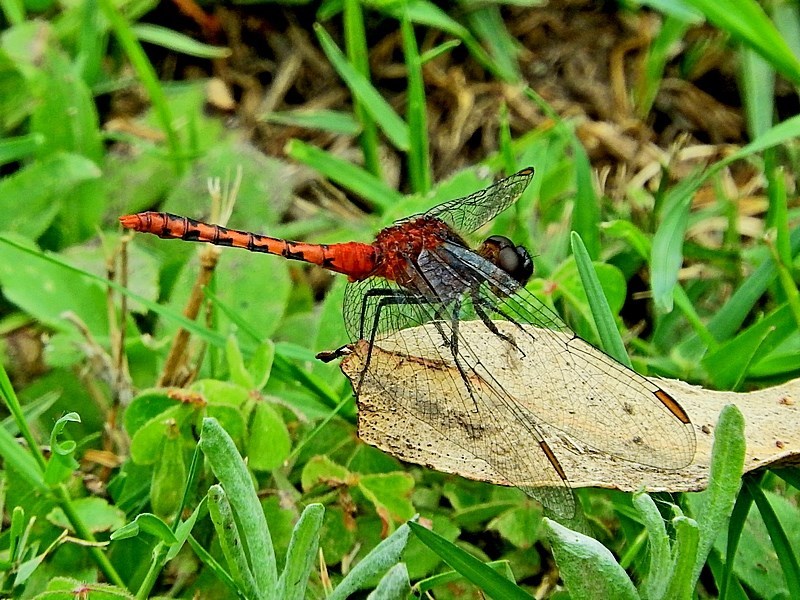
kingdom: Animalia
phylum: Arthropoda
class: Insecta
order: Odonata
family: Libellulidae
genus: Diplacodes
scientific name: Diplacodes melanopsis
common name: Black-faced percher
